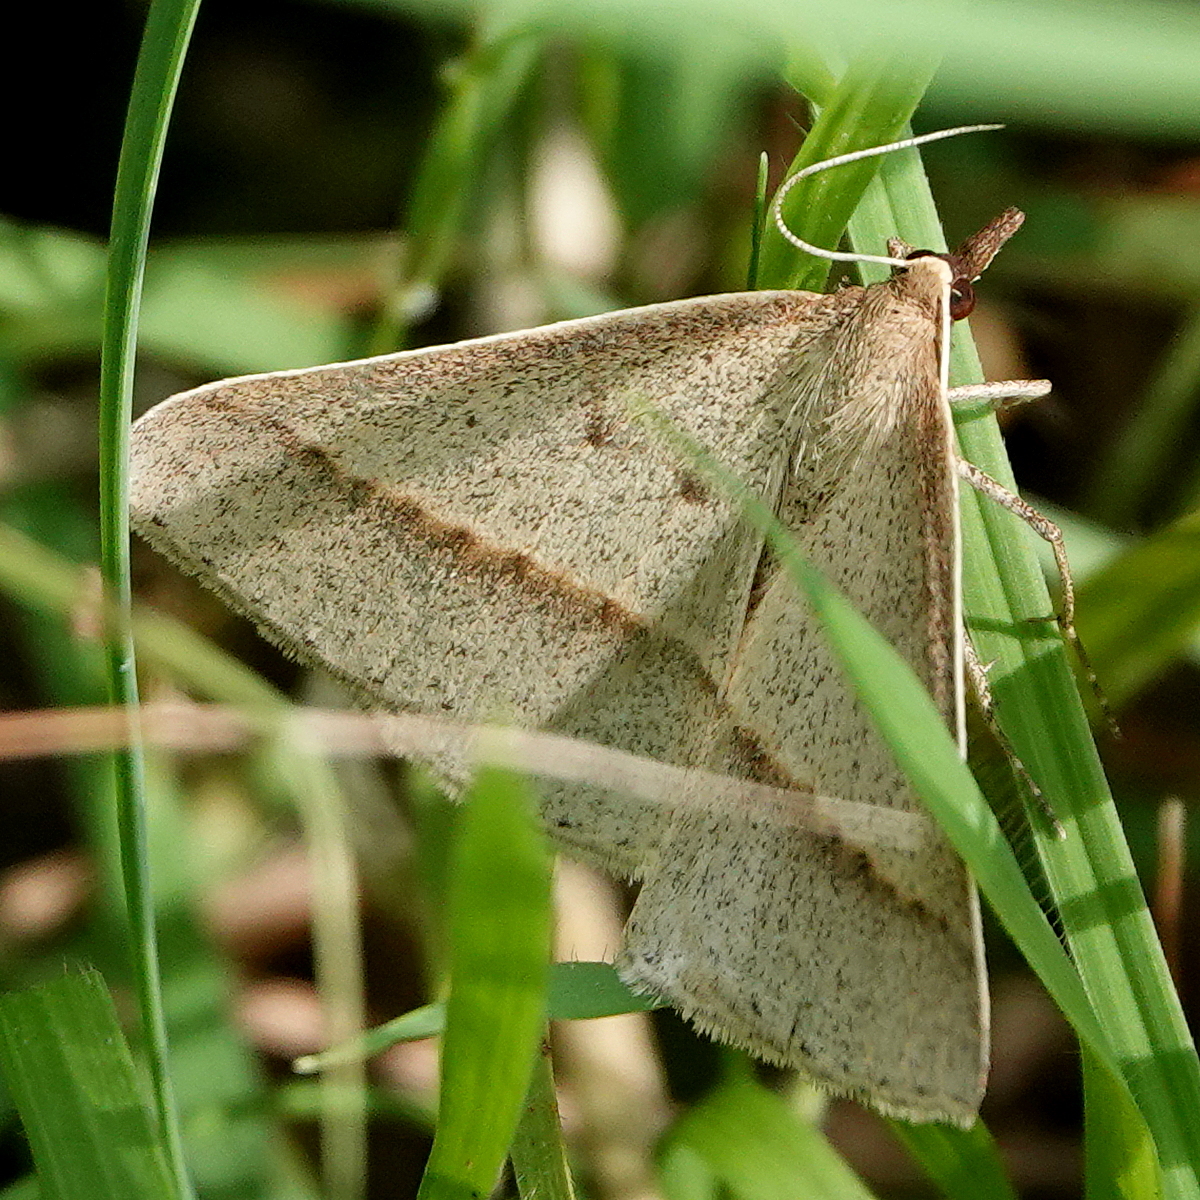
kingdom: Animalia
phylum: Arthropoda
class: Insecta
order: Lepidoptera
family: Geometridae
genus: Epidesmia
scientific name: Epidesmia tryxaria
